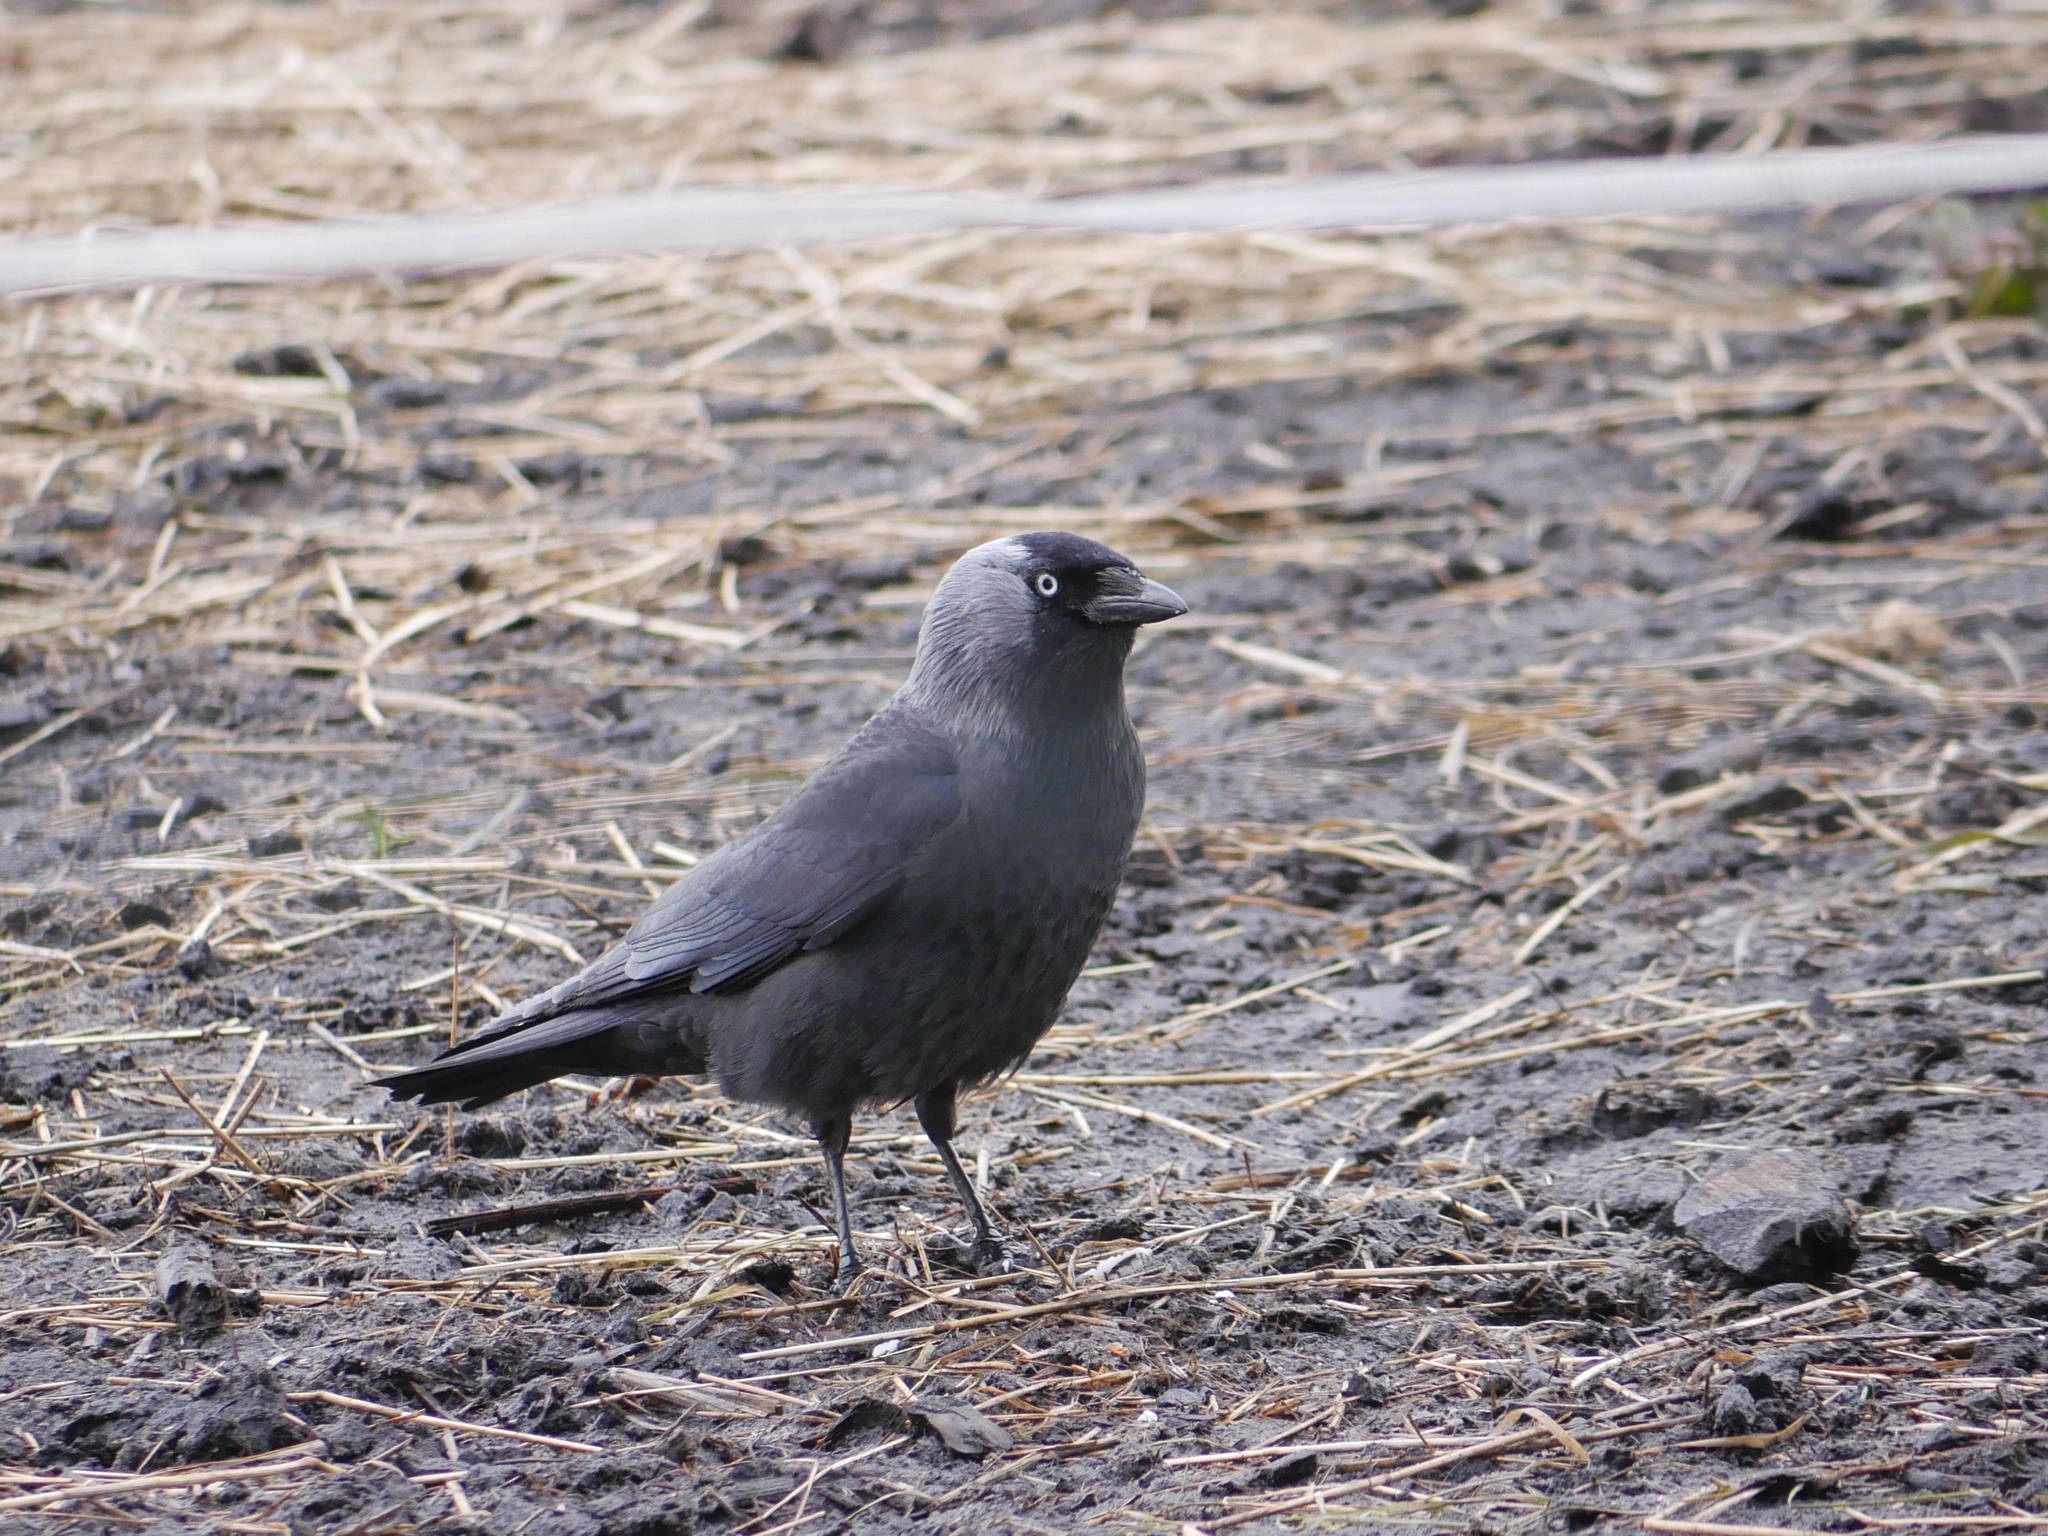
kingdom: Animalia
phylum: Chordata
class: Aves
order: Passeriformes
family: Corvidae
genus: Coloeus
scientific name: Coloeus monedula
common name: Western jackdaw
